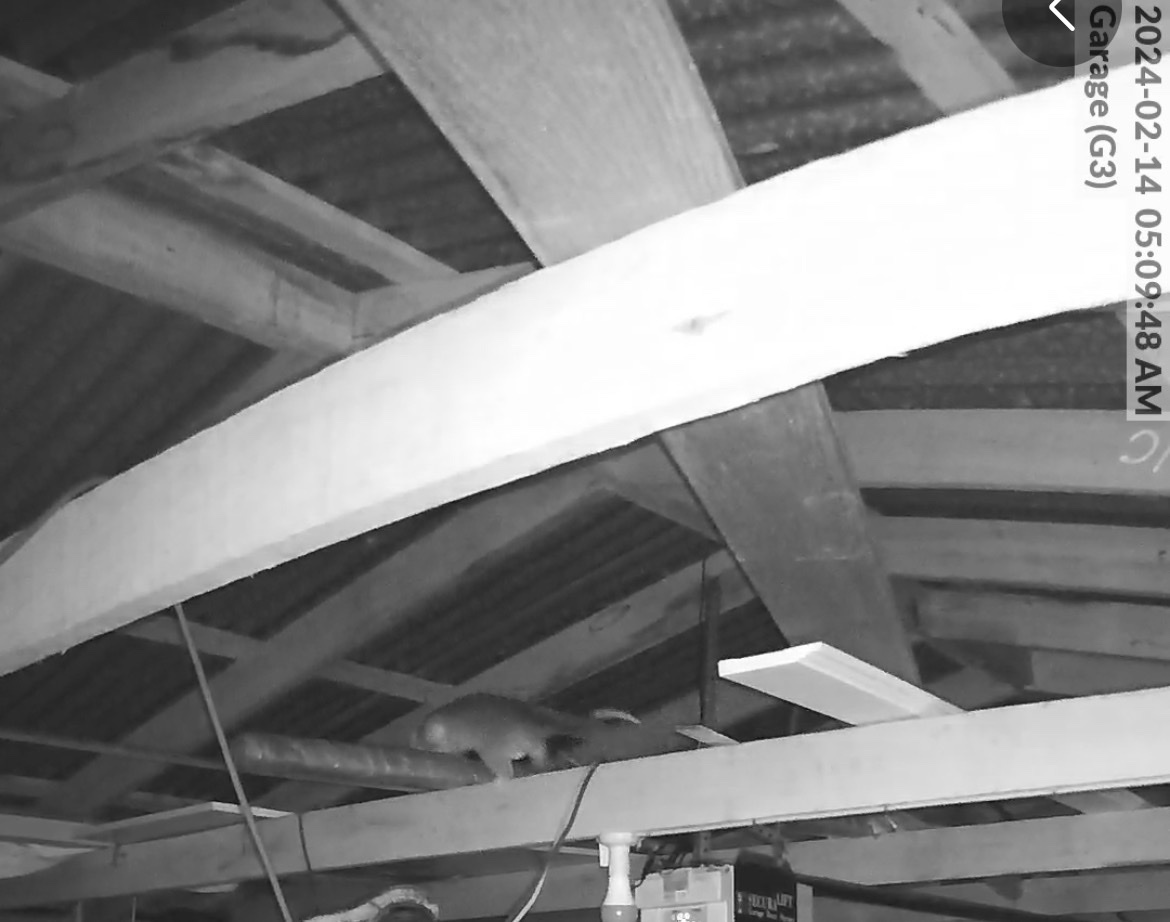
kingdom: Animalia
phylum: Chordata
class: Mammalia
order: Diprotodontia
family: Pseudocheiridae
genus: Pseudocheirus
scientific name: Pseudocheirus peregrinus
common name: Common ringtail possum
